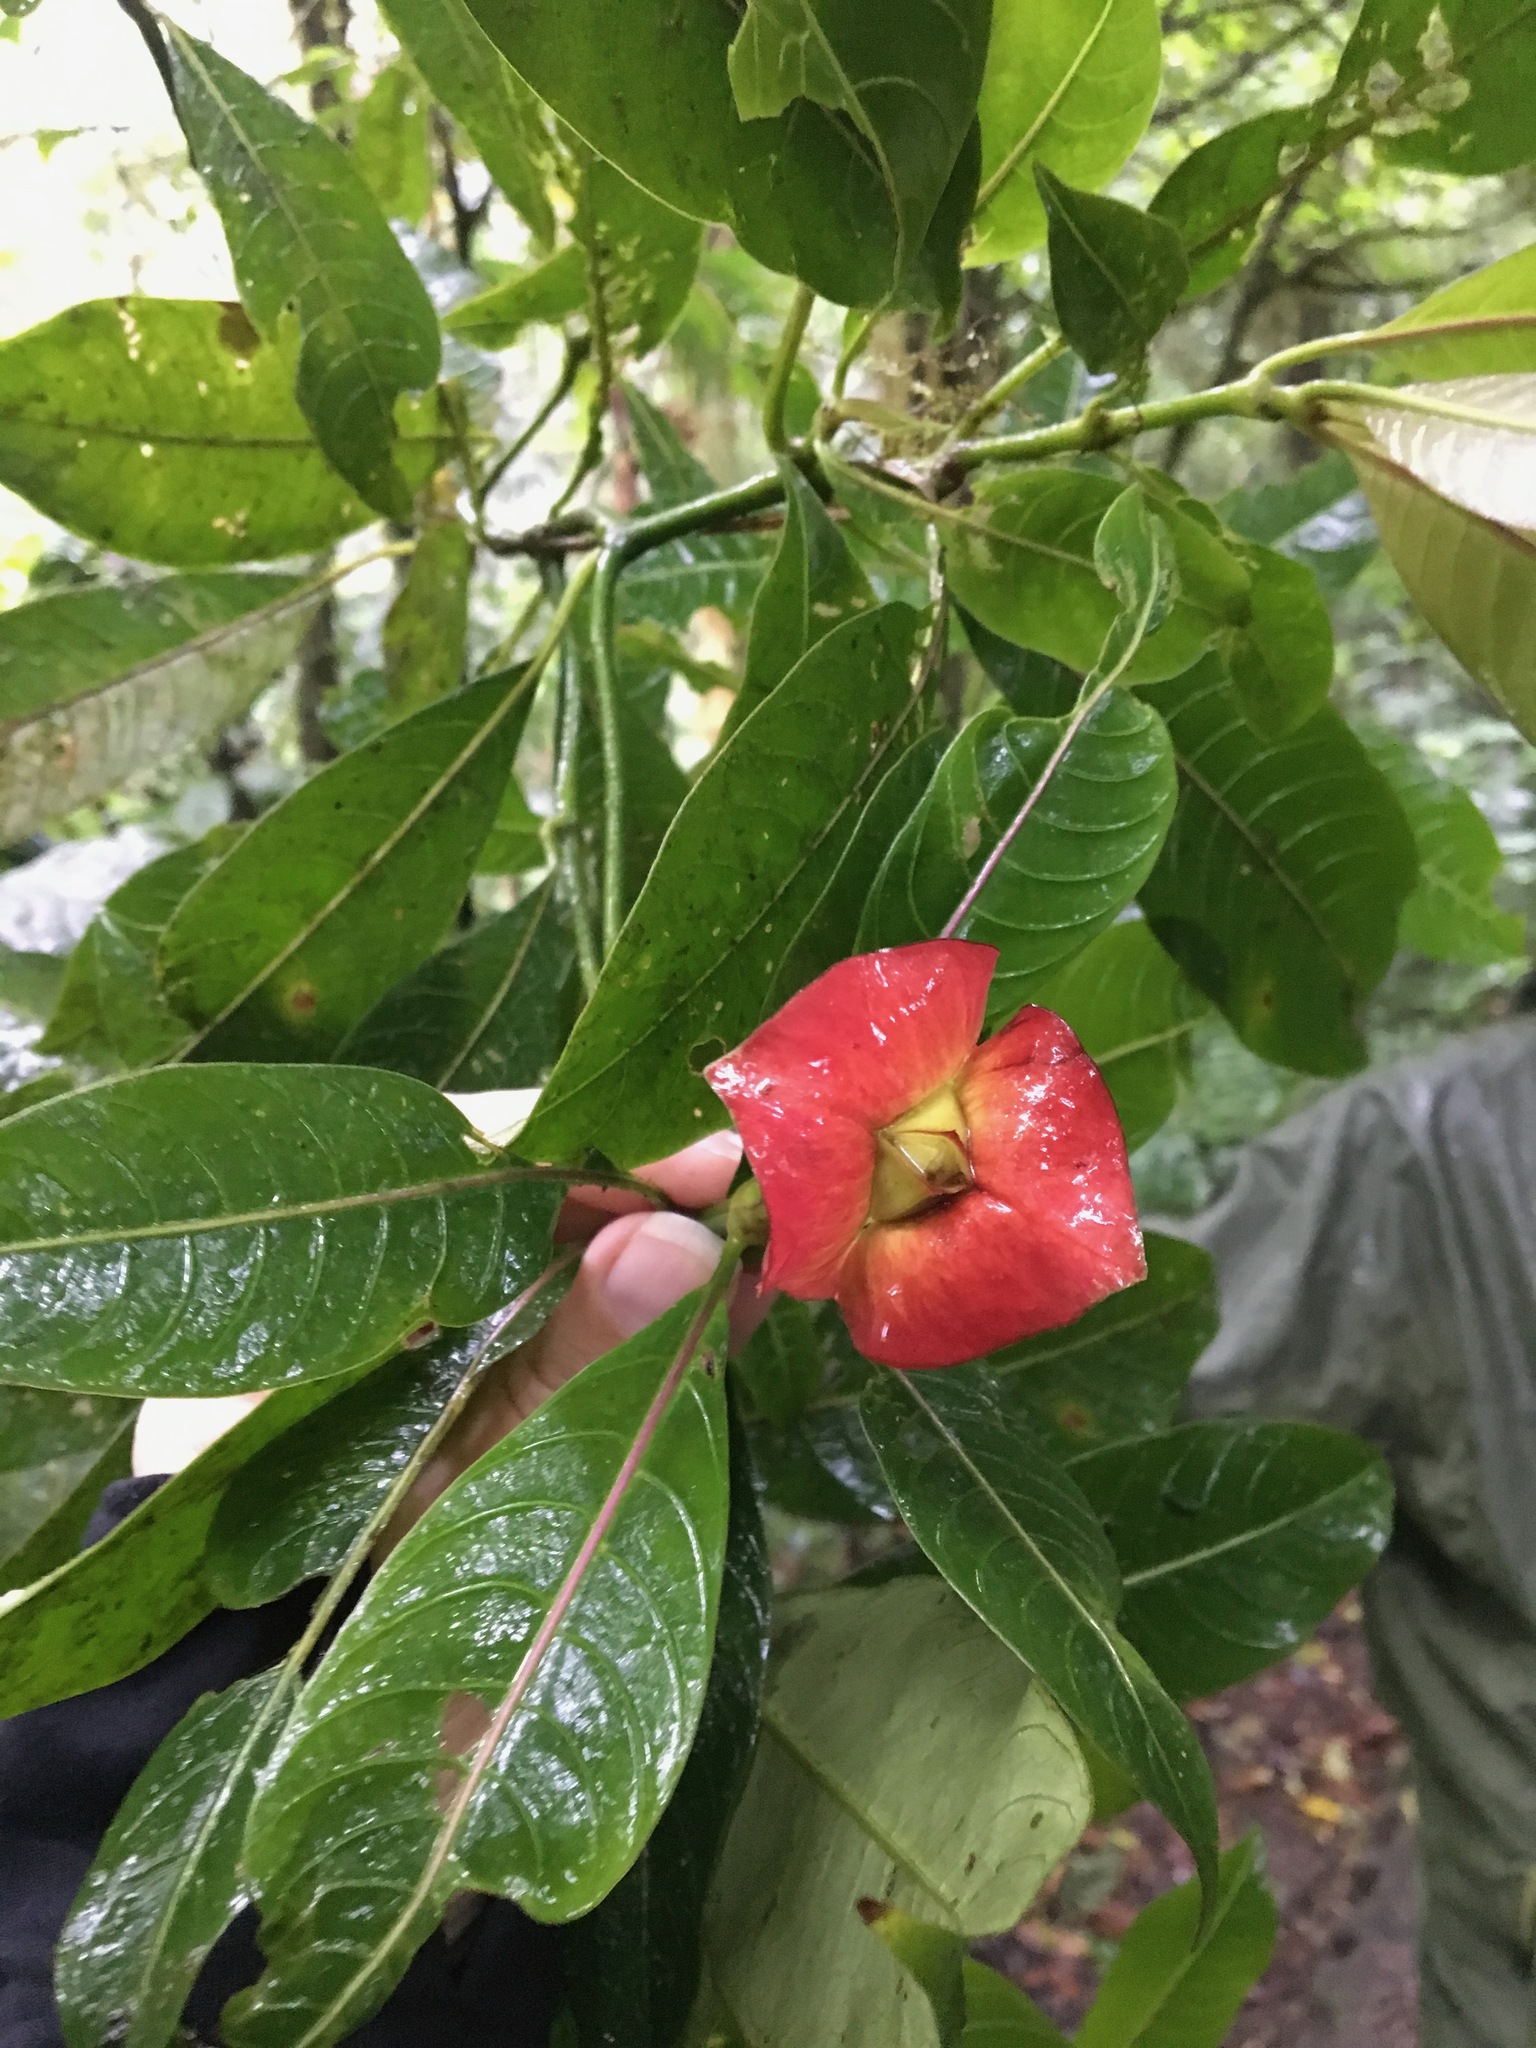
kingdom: Plantae
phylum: Tracheophyta
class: Magnoliopsida
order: Gentianales
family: Rubiaceae
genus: Palicourea
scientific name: Palicourea elata
